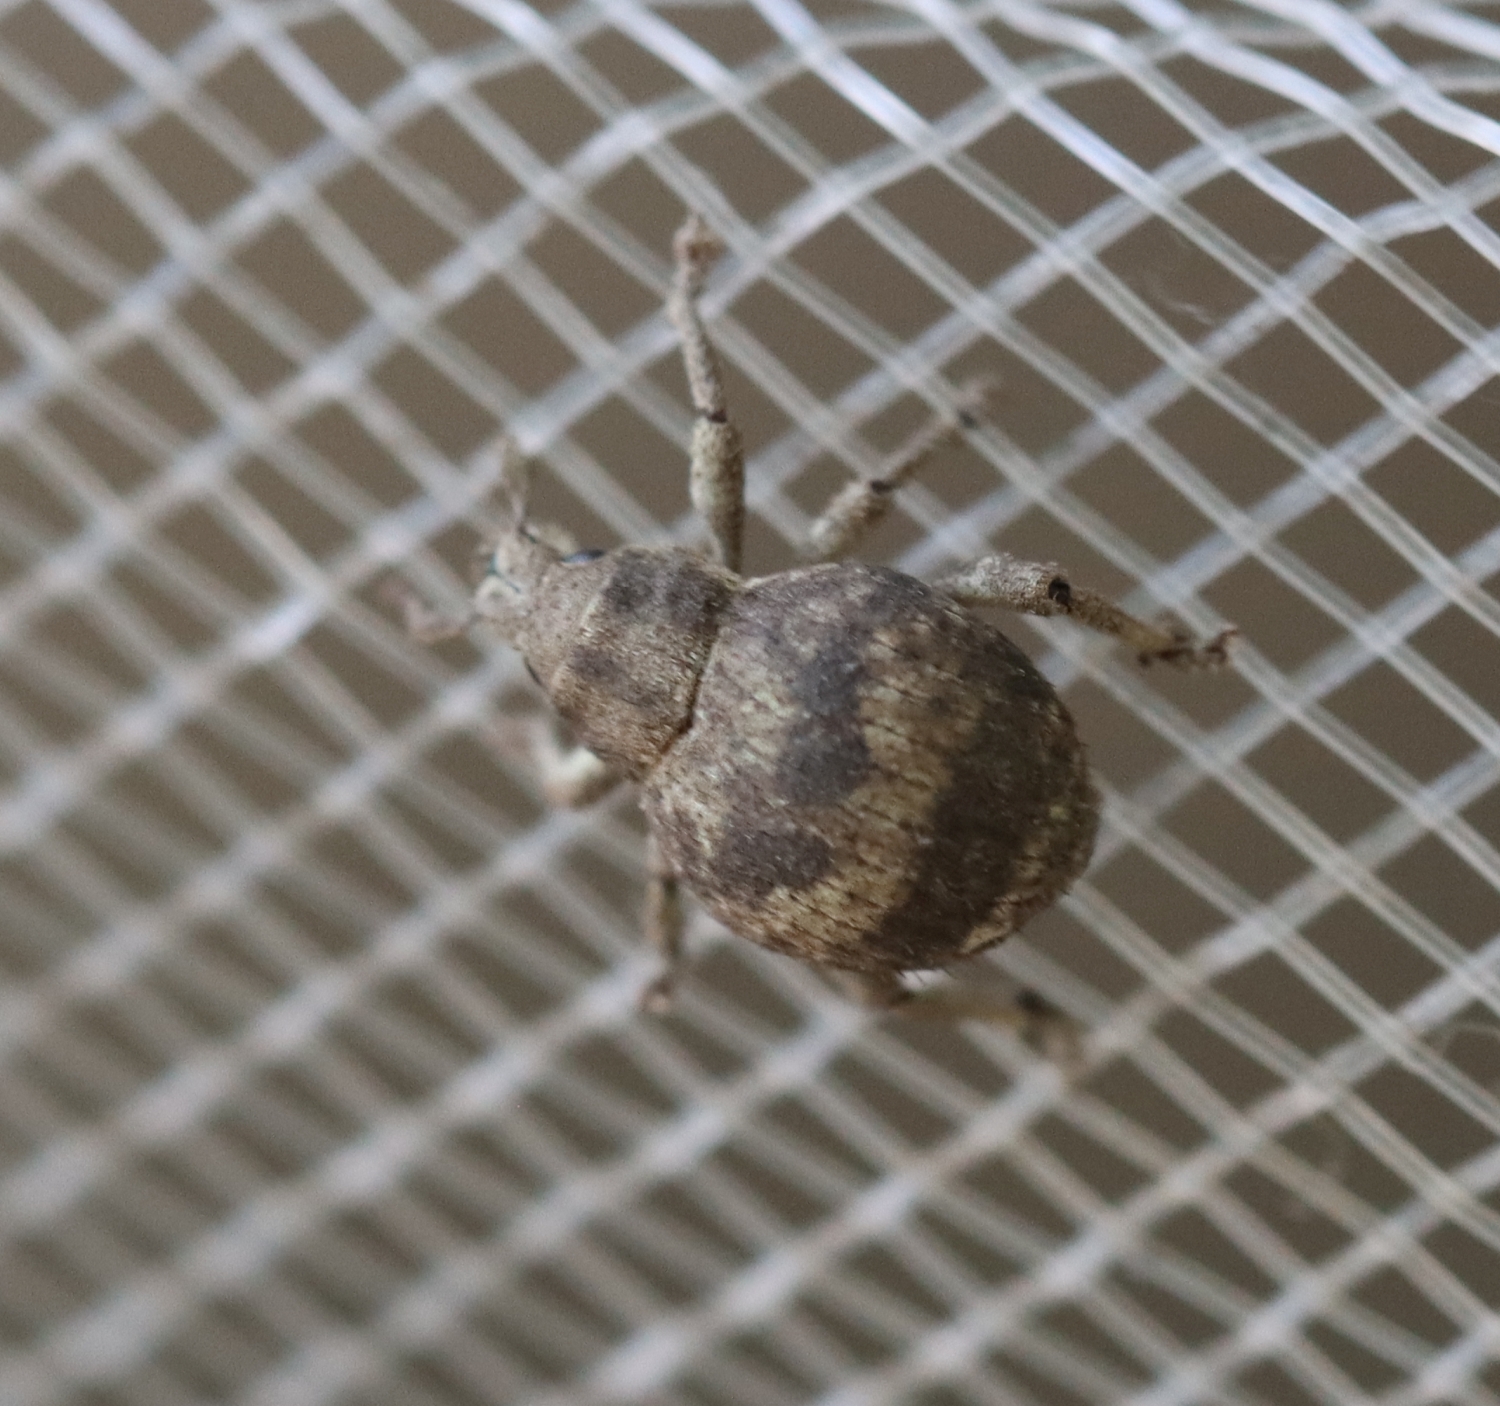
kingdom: Animalia
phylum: Arthropoda
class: Insecta
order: Coleoptera
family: Curculionidae
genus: Pseudocneorhinus
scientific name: Pseudocneorhinus bifasciatus
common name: Two-banded japanese weevil
